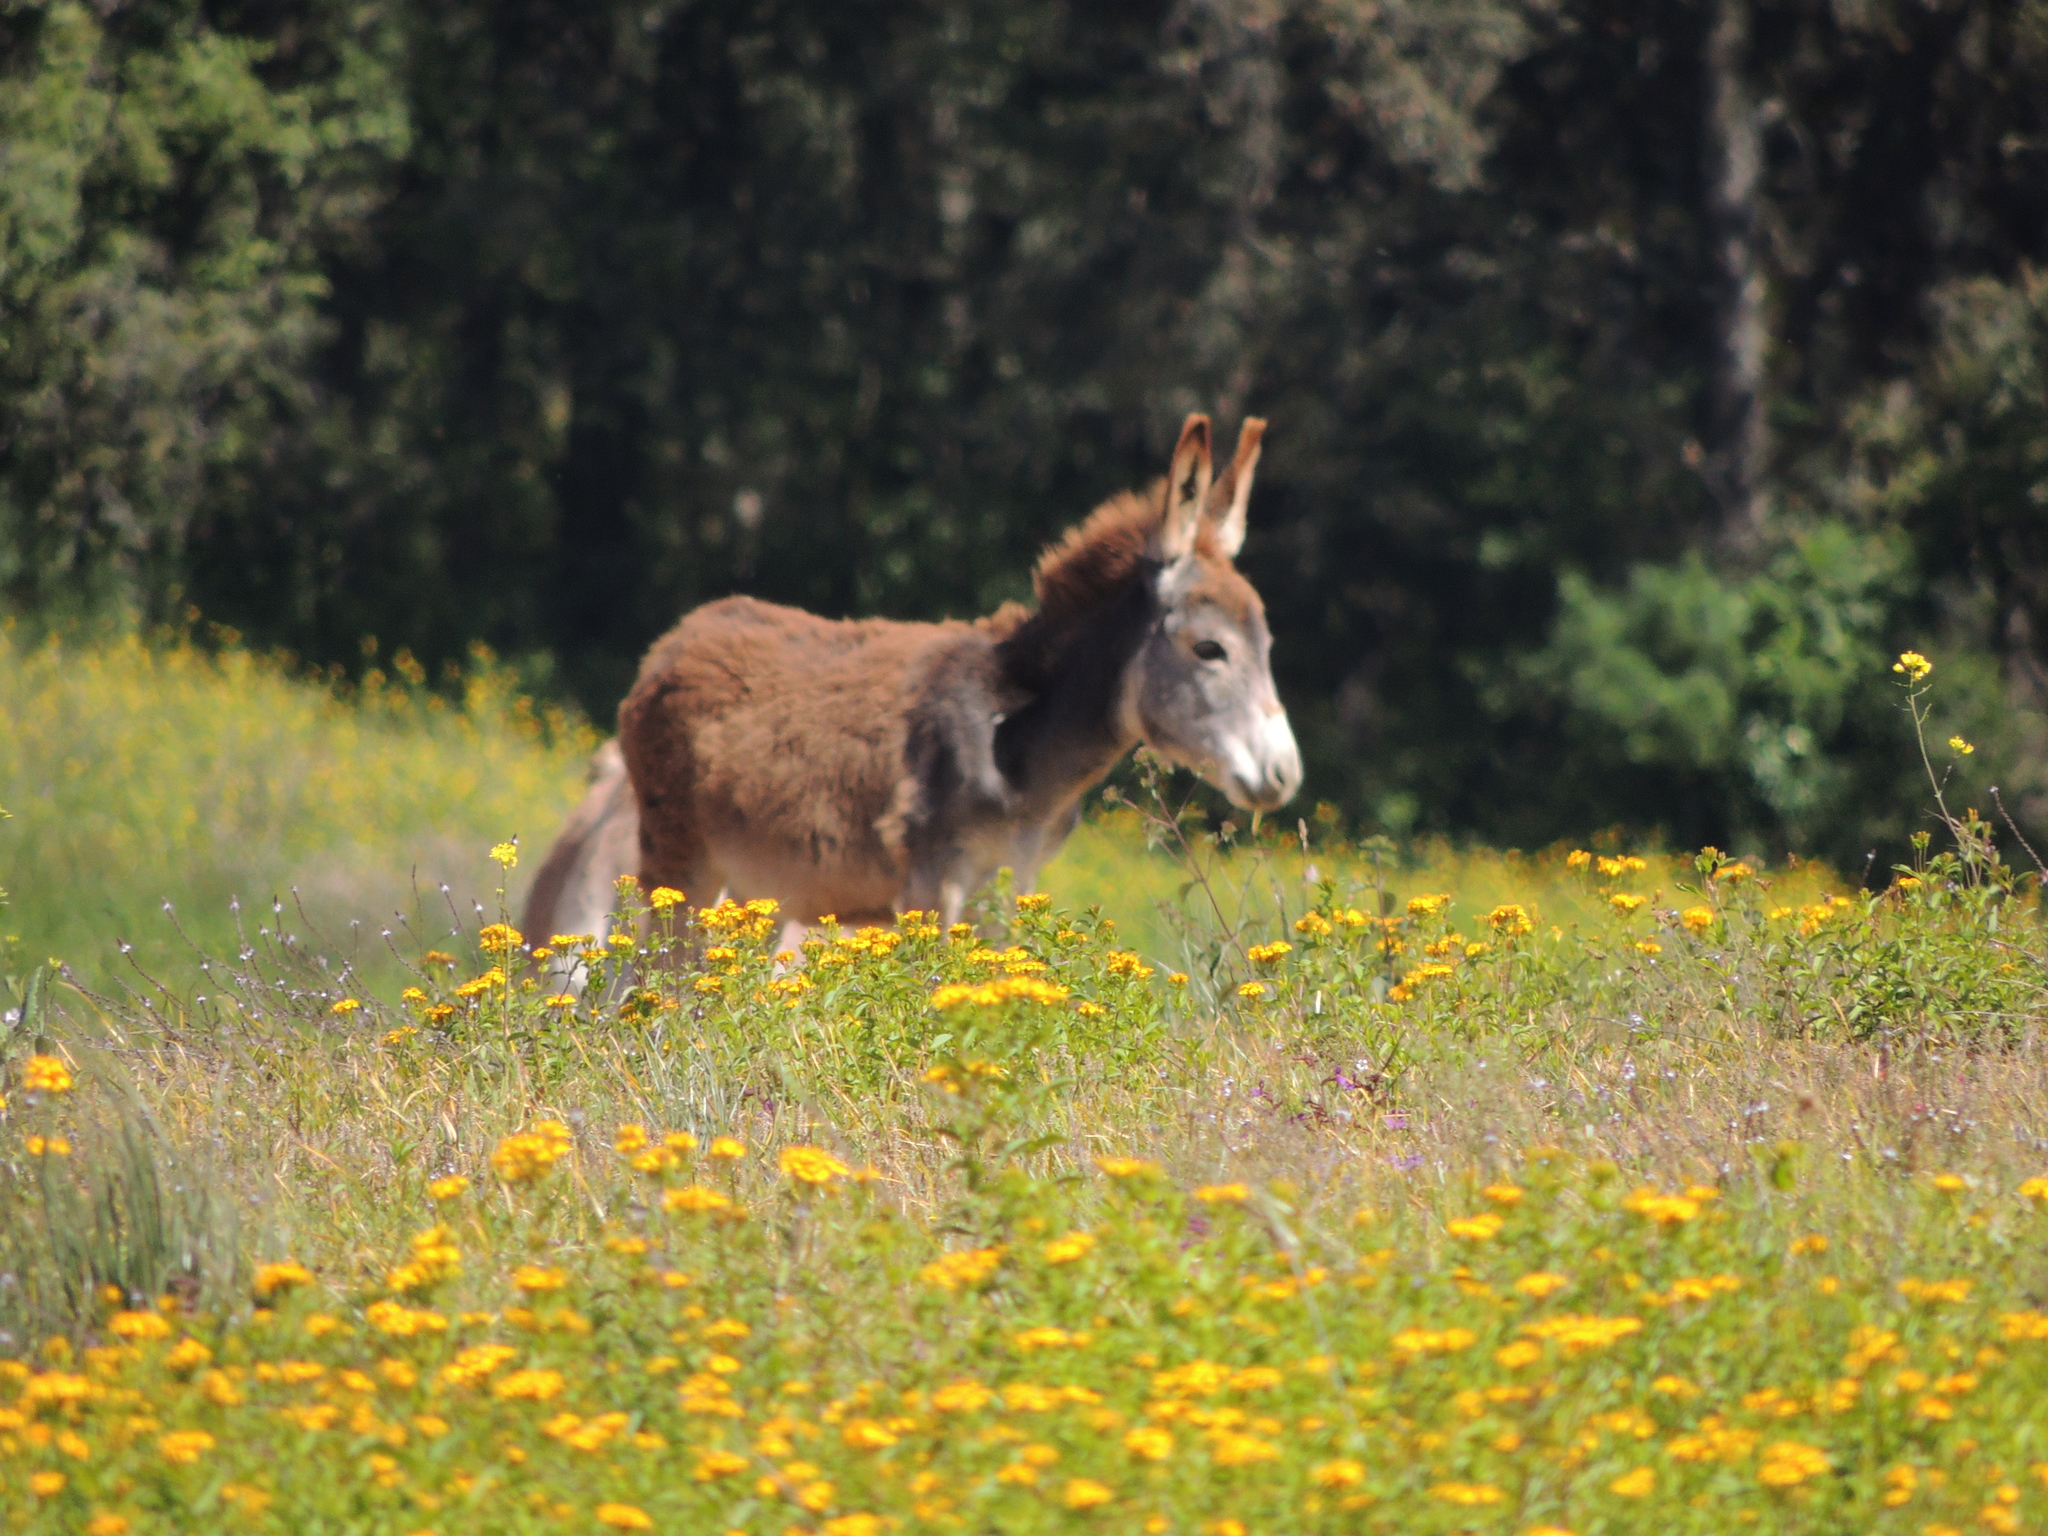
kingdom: Animalia
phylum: Chordata
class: Mammalia
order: Perissodactyla
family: Equidae
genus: Equus
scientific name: Equus asinus
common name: Ass
